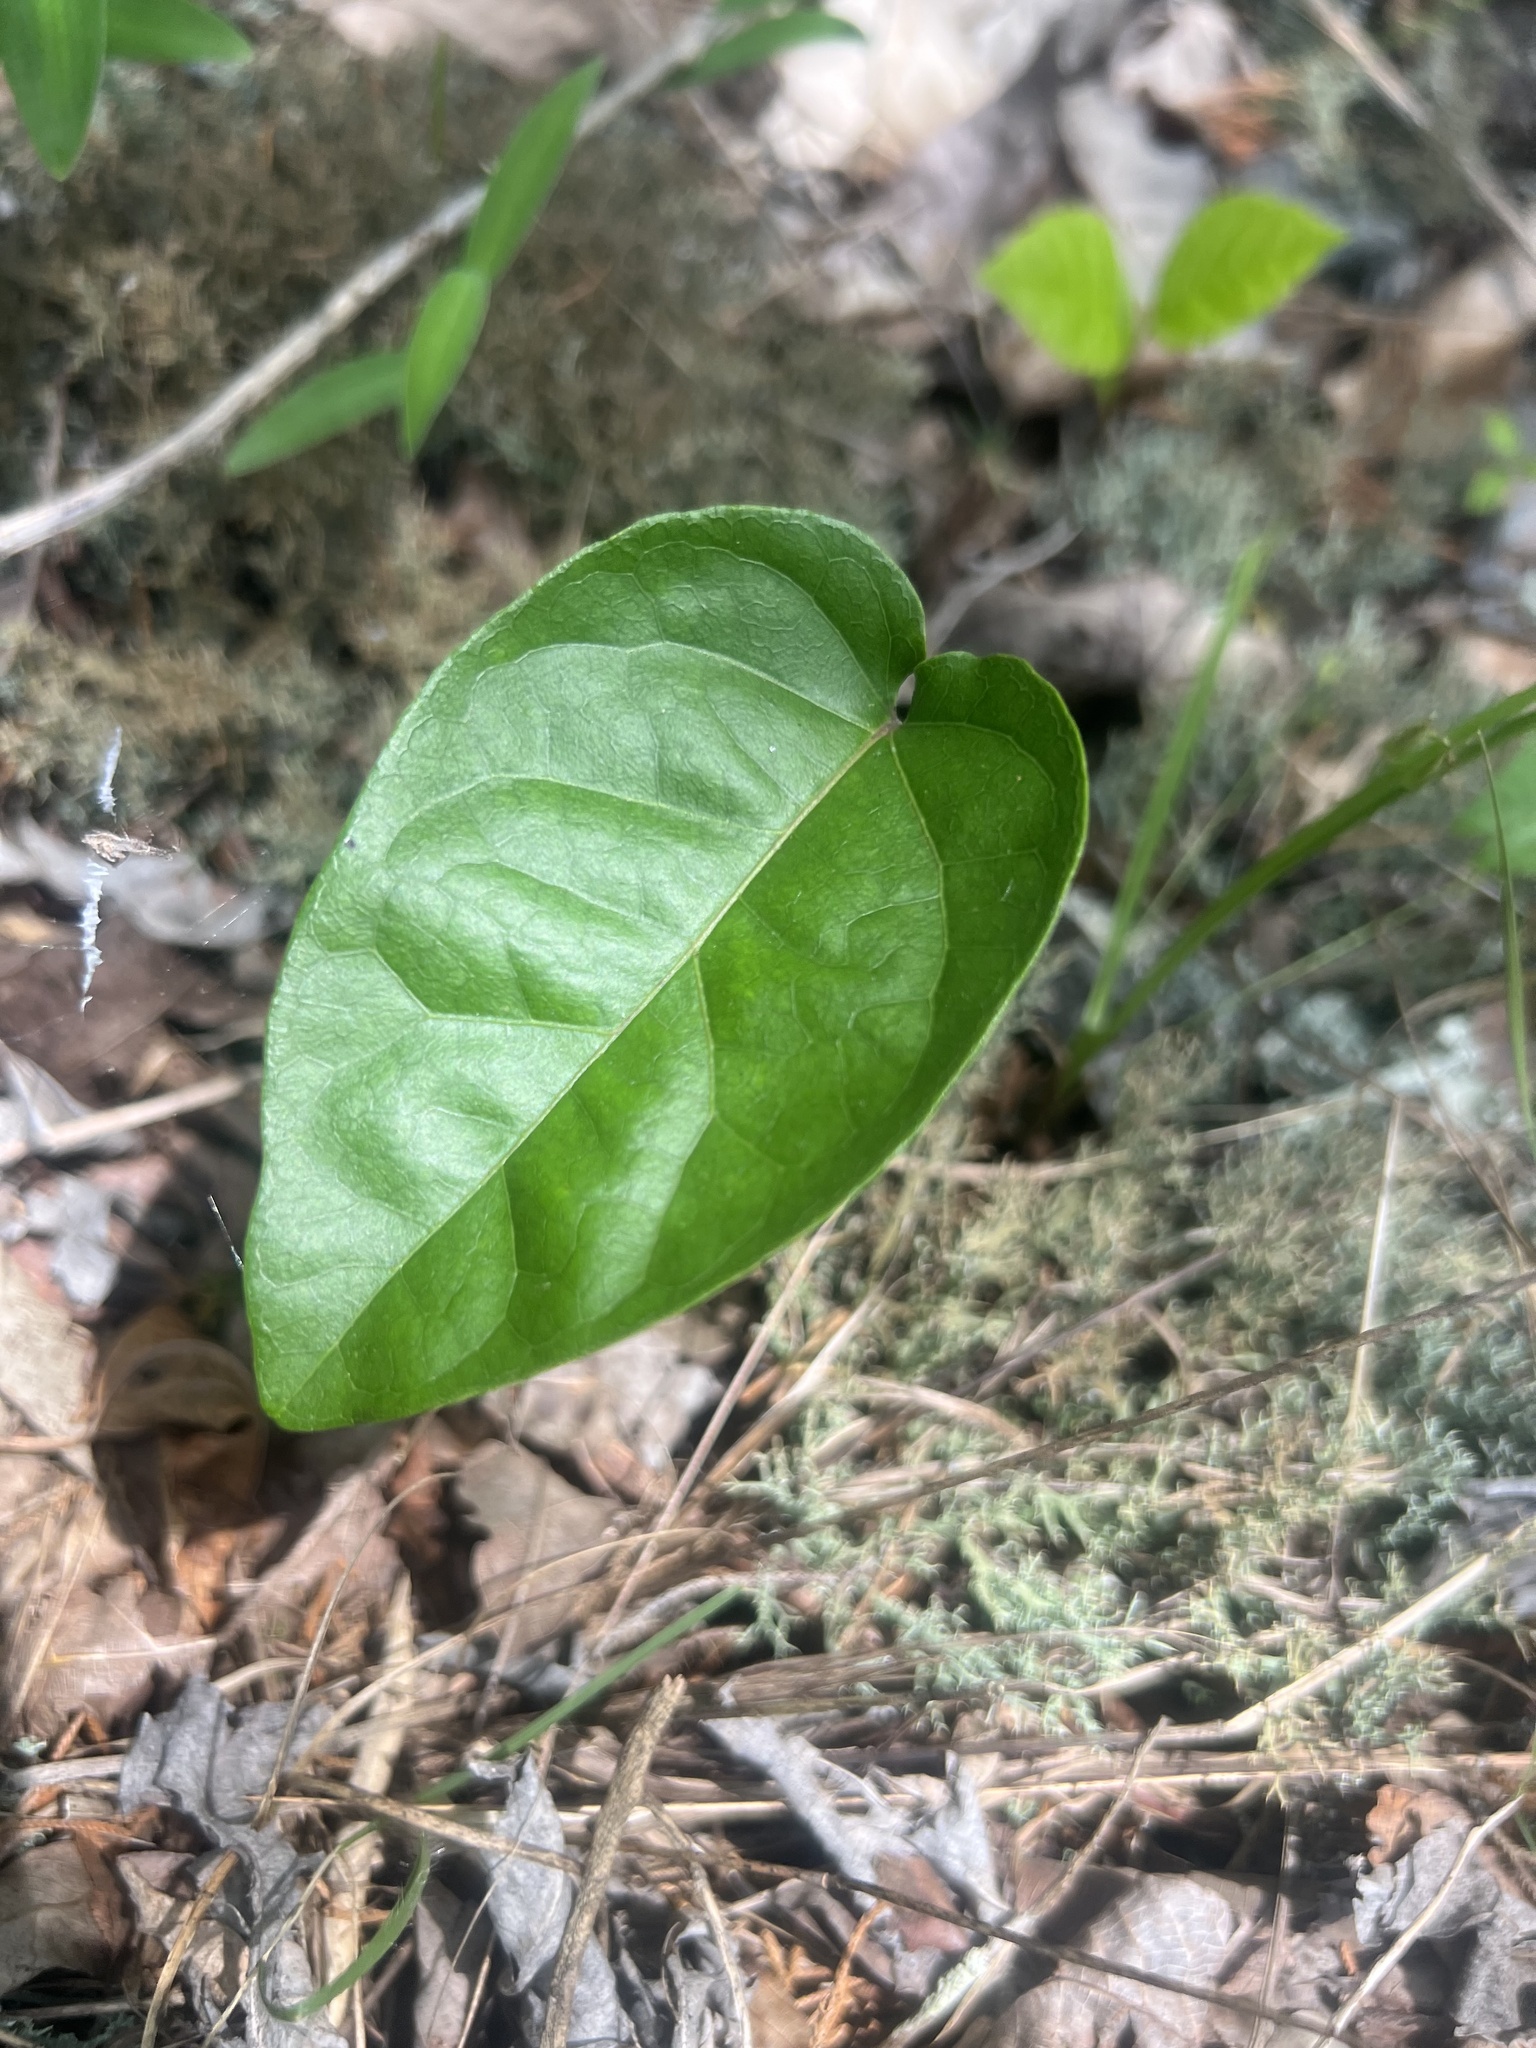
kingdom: Plantae
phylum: Tracheophyta
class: Magnoliopsida
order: Lamiales
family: Bignoniaceae
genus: Bignonia
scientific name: Bignonia capreolata
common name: Crossvine
